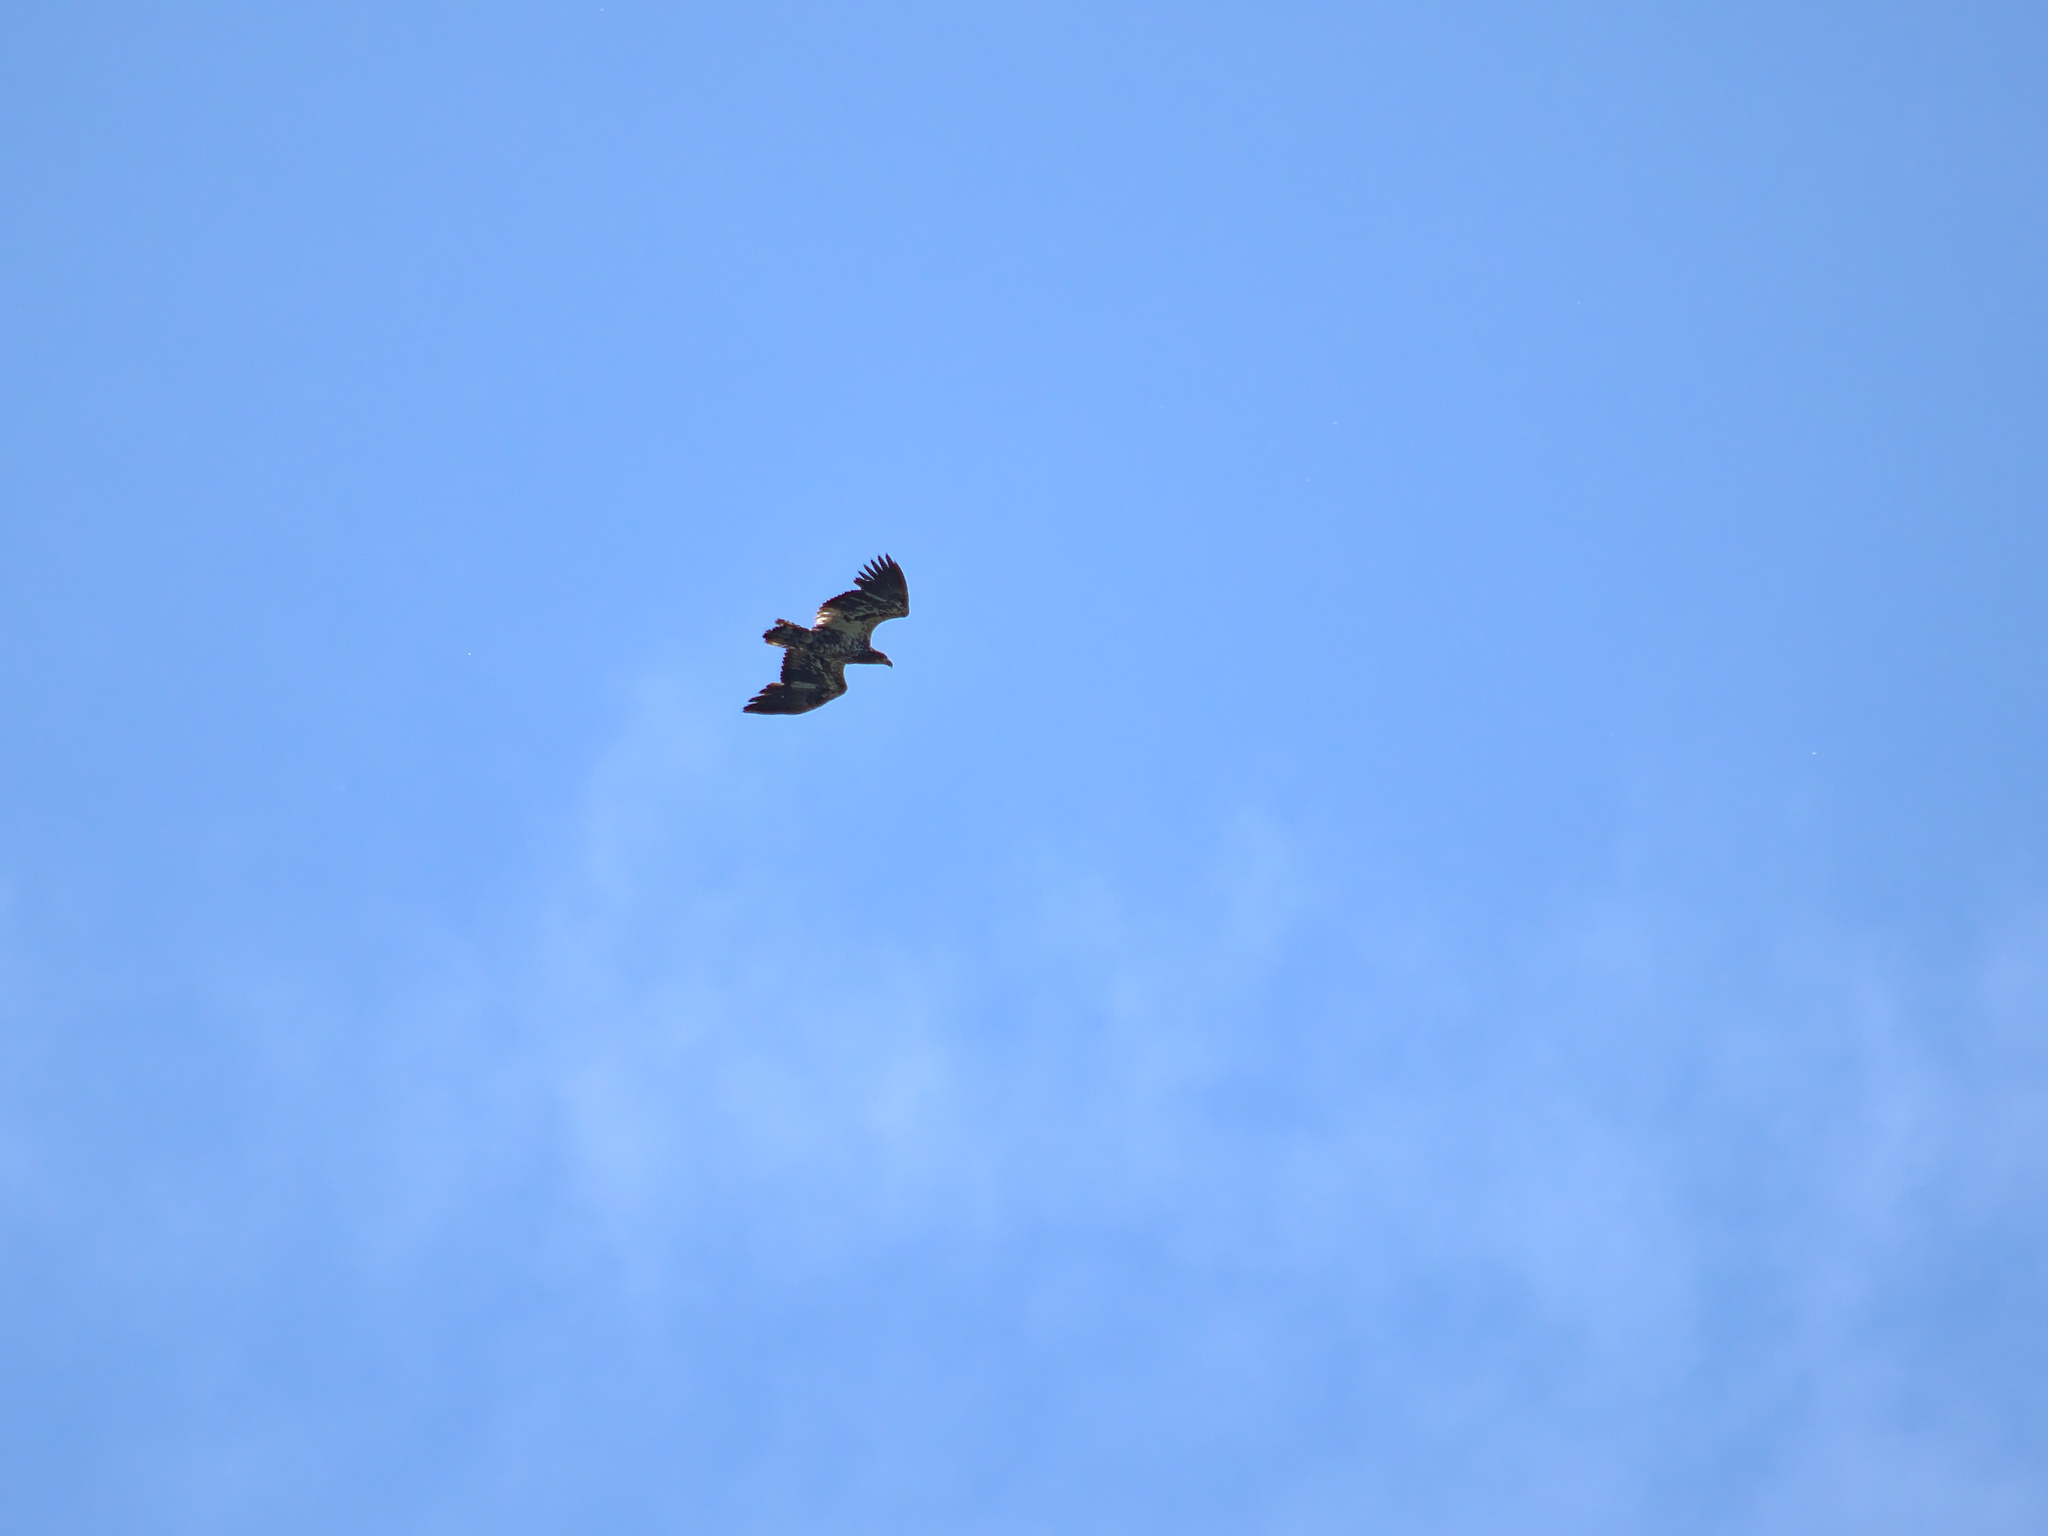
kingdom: Animalia
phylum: Chordata
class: Aves
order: Accipitriformes
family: Accipitridae
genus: Haliaeetus
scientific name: Haliaeetus leucocephalus
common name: Bald eagle
